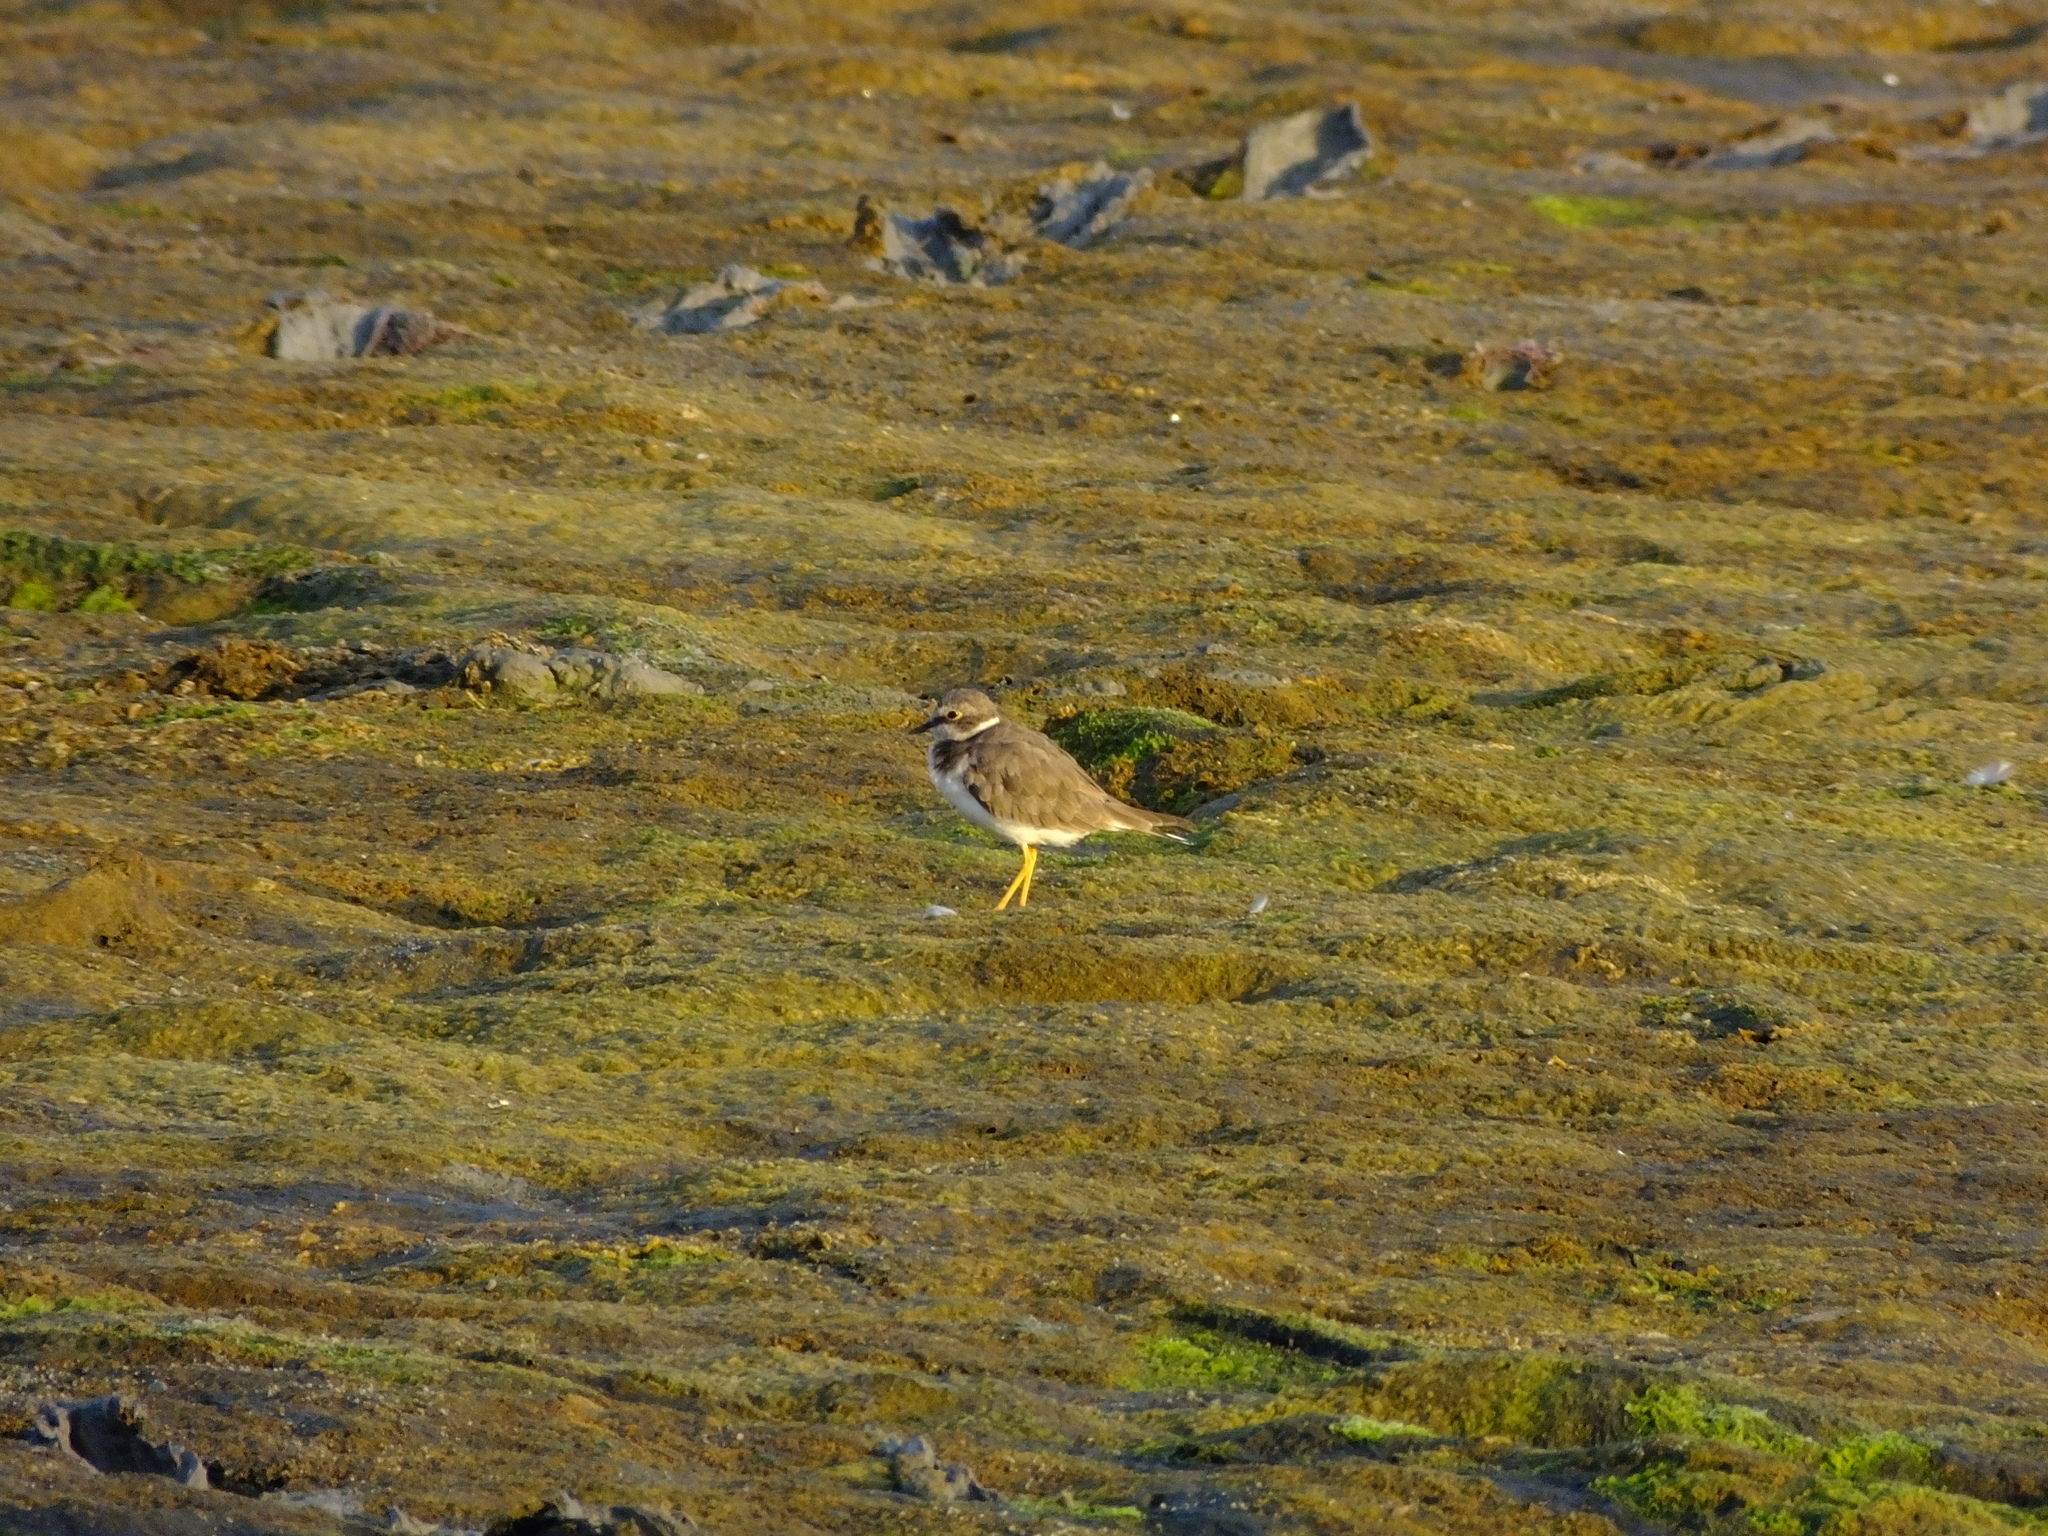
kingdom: Animalia
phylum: Chordata
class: Aves
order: Charadriiformes
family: Charadriidae
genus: Charadrius
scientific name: Charadrius dubius
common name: Little ringed plover
